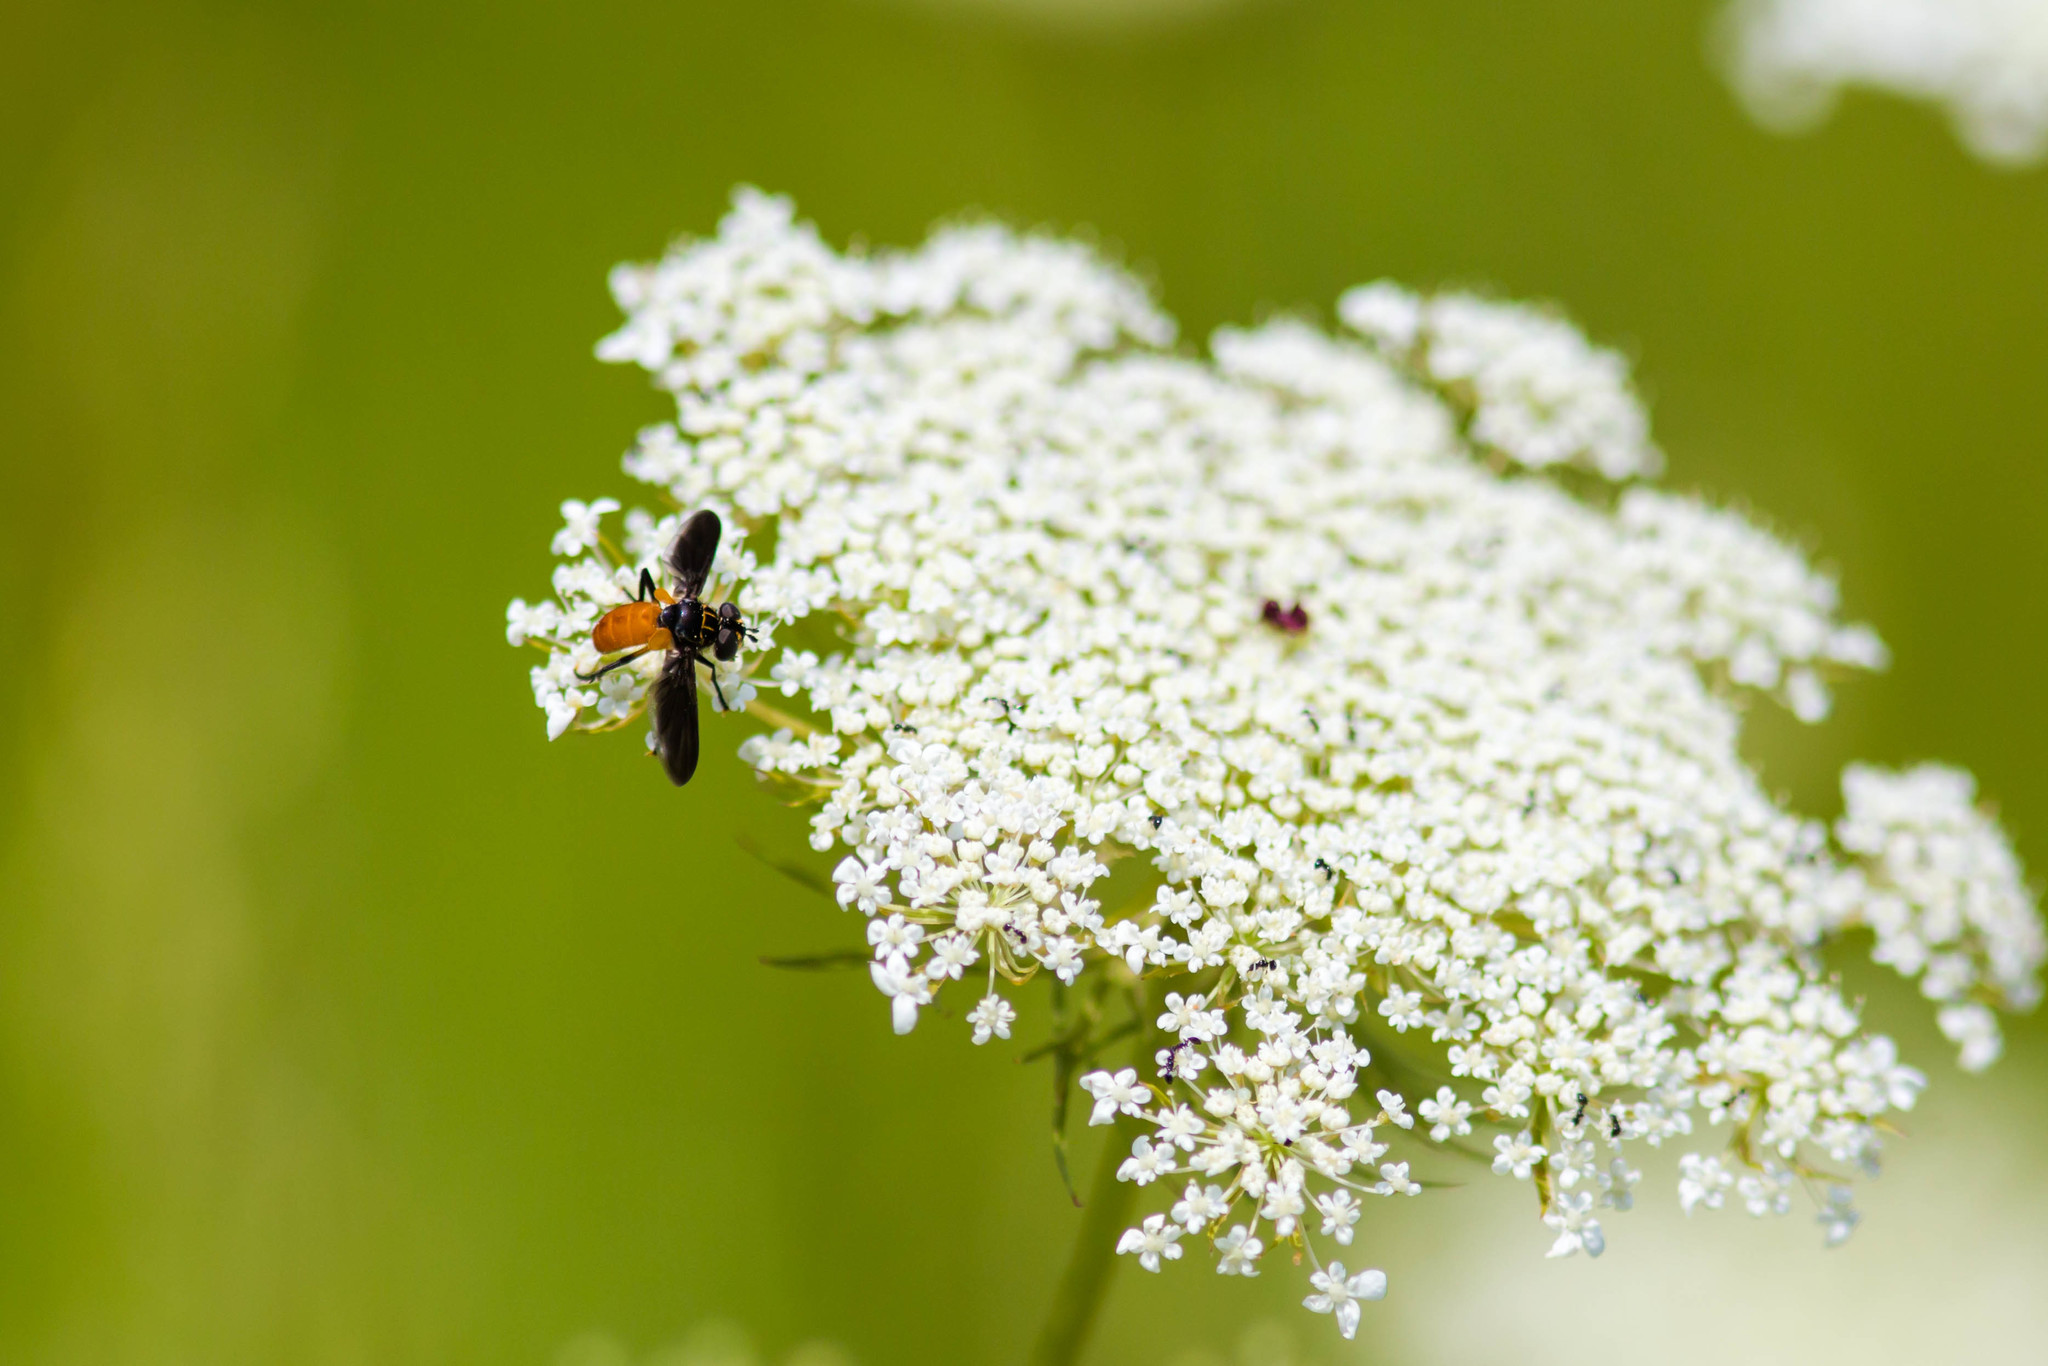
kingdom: Animalia
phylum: Arthropoda
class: Insecta
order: Diptera
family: Tachinidae
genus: Trichopoda
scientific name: Trichopoda pennipes
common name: Tachinid fly
